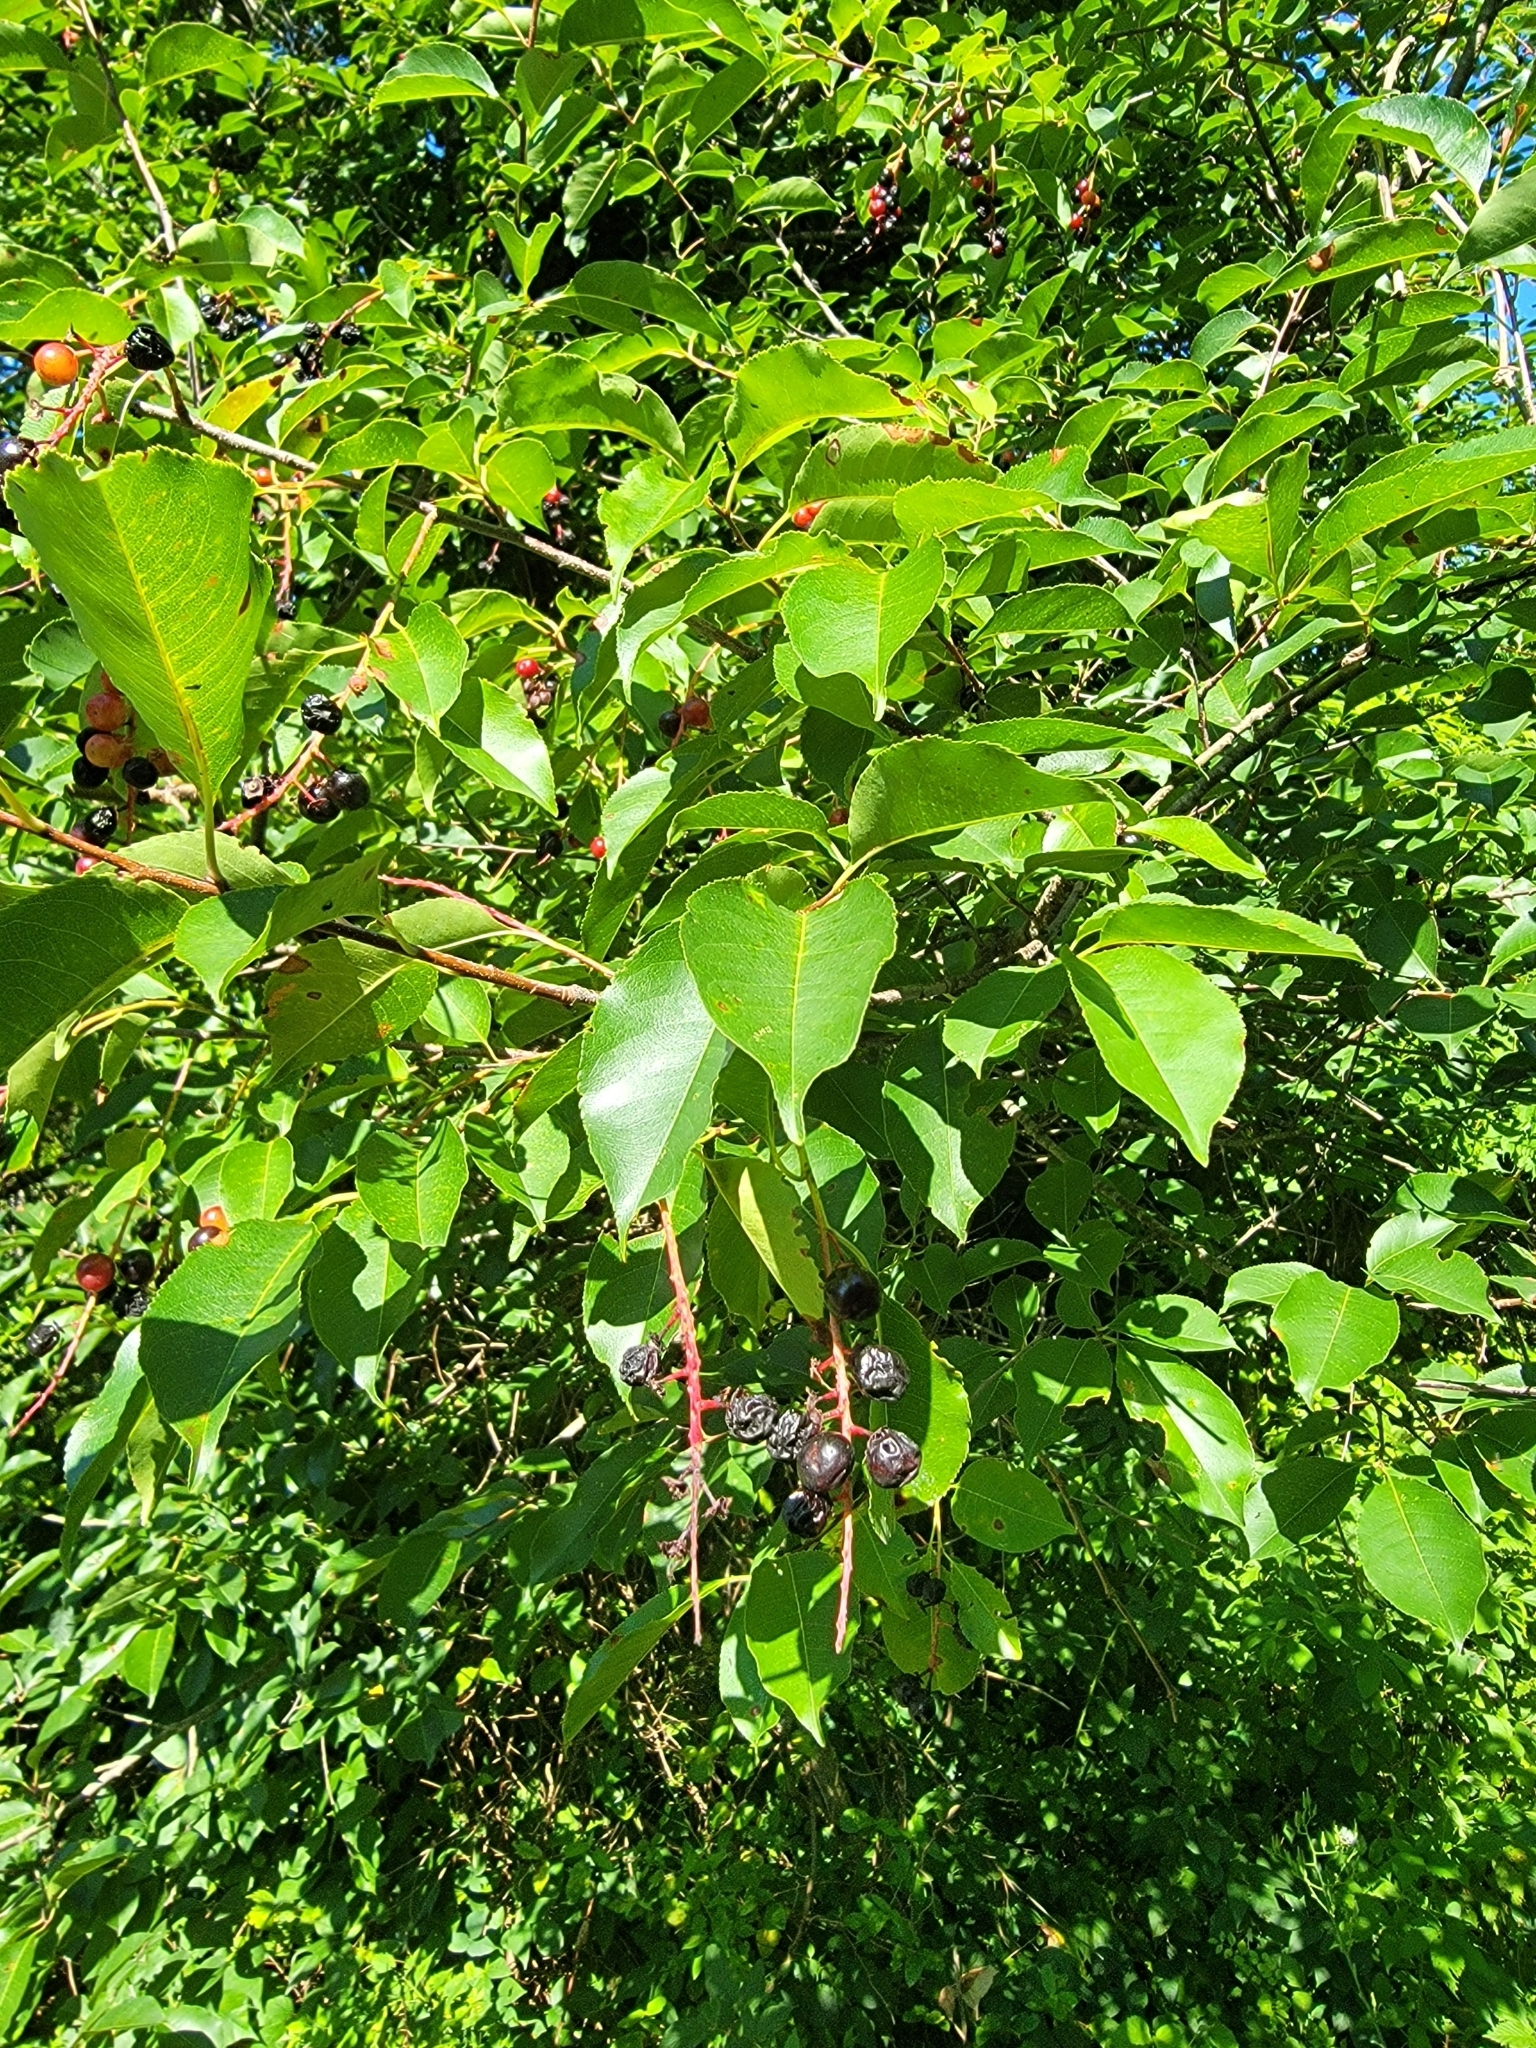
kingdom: Plantae
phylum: Tracheophyta
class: Magnoliopsida
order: Rosales
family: Rosaceae
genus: Prunus
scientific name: Prunus serotina
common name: Black cherry
